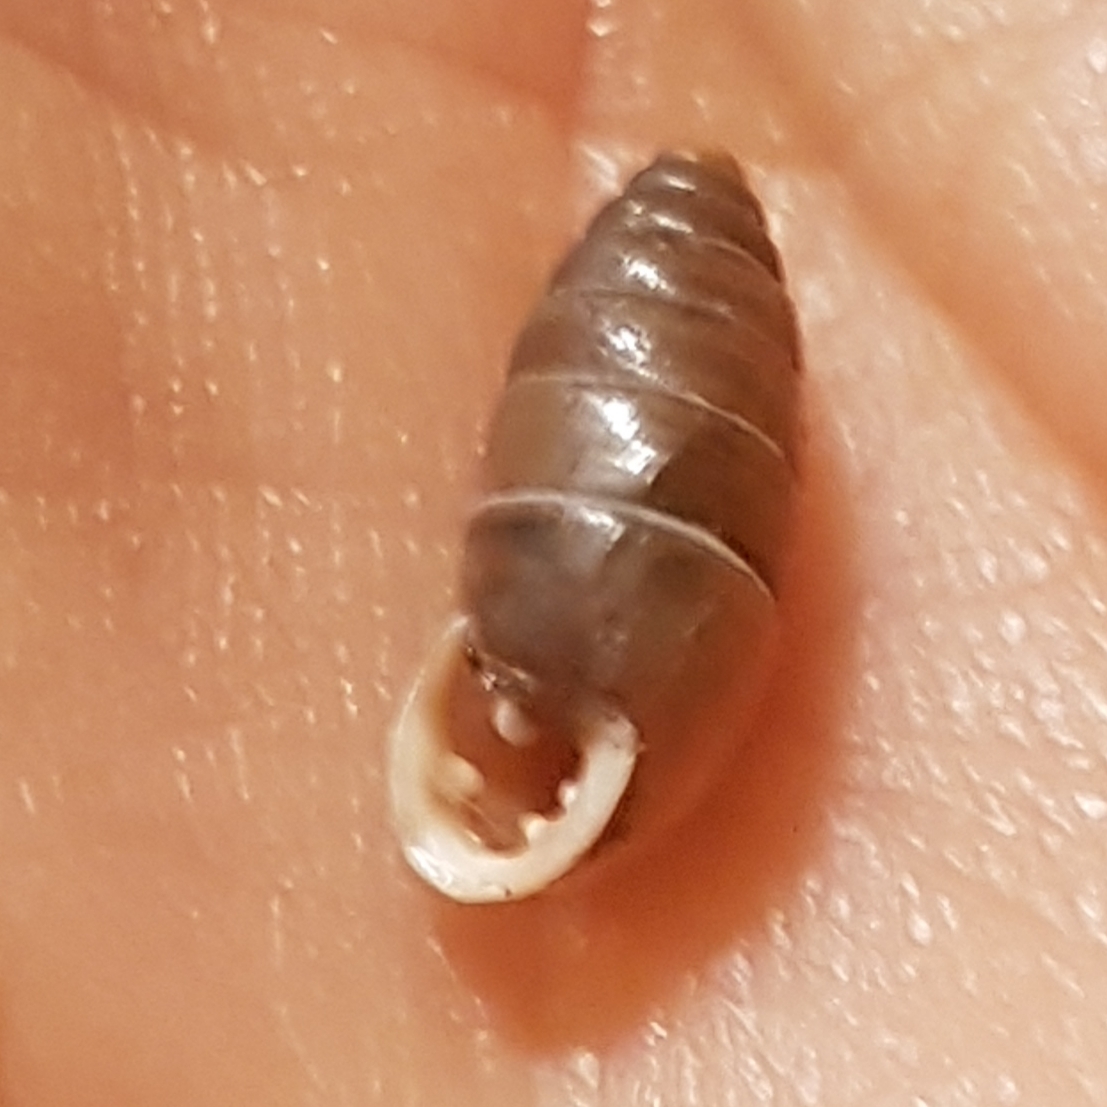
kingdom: Animalia
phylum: Mollusca
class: Gastropoda
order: Stylommatophora
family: Enidae
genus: Jaminia
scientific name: Jaminia quadridens
